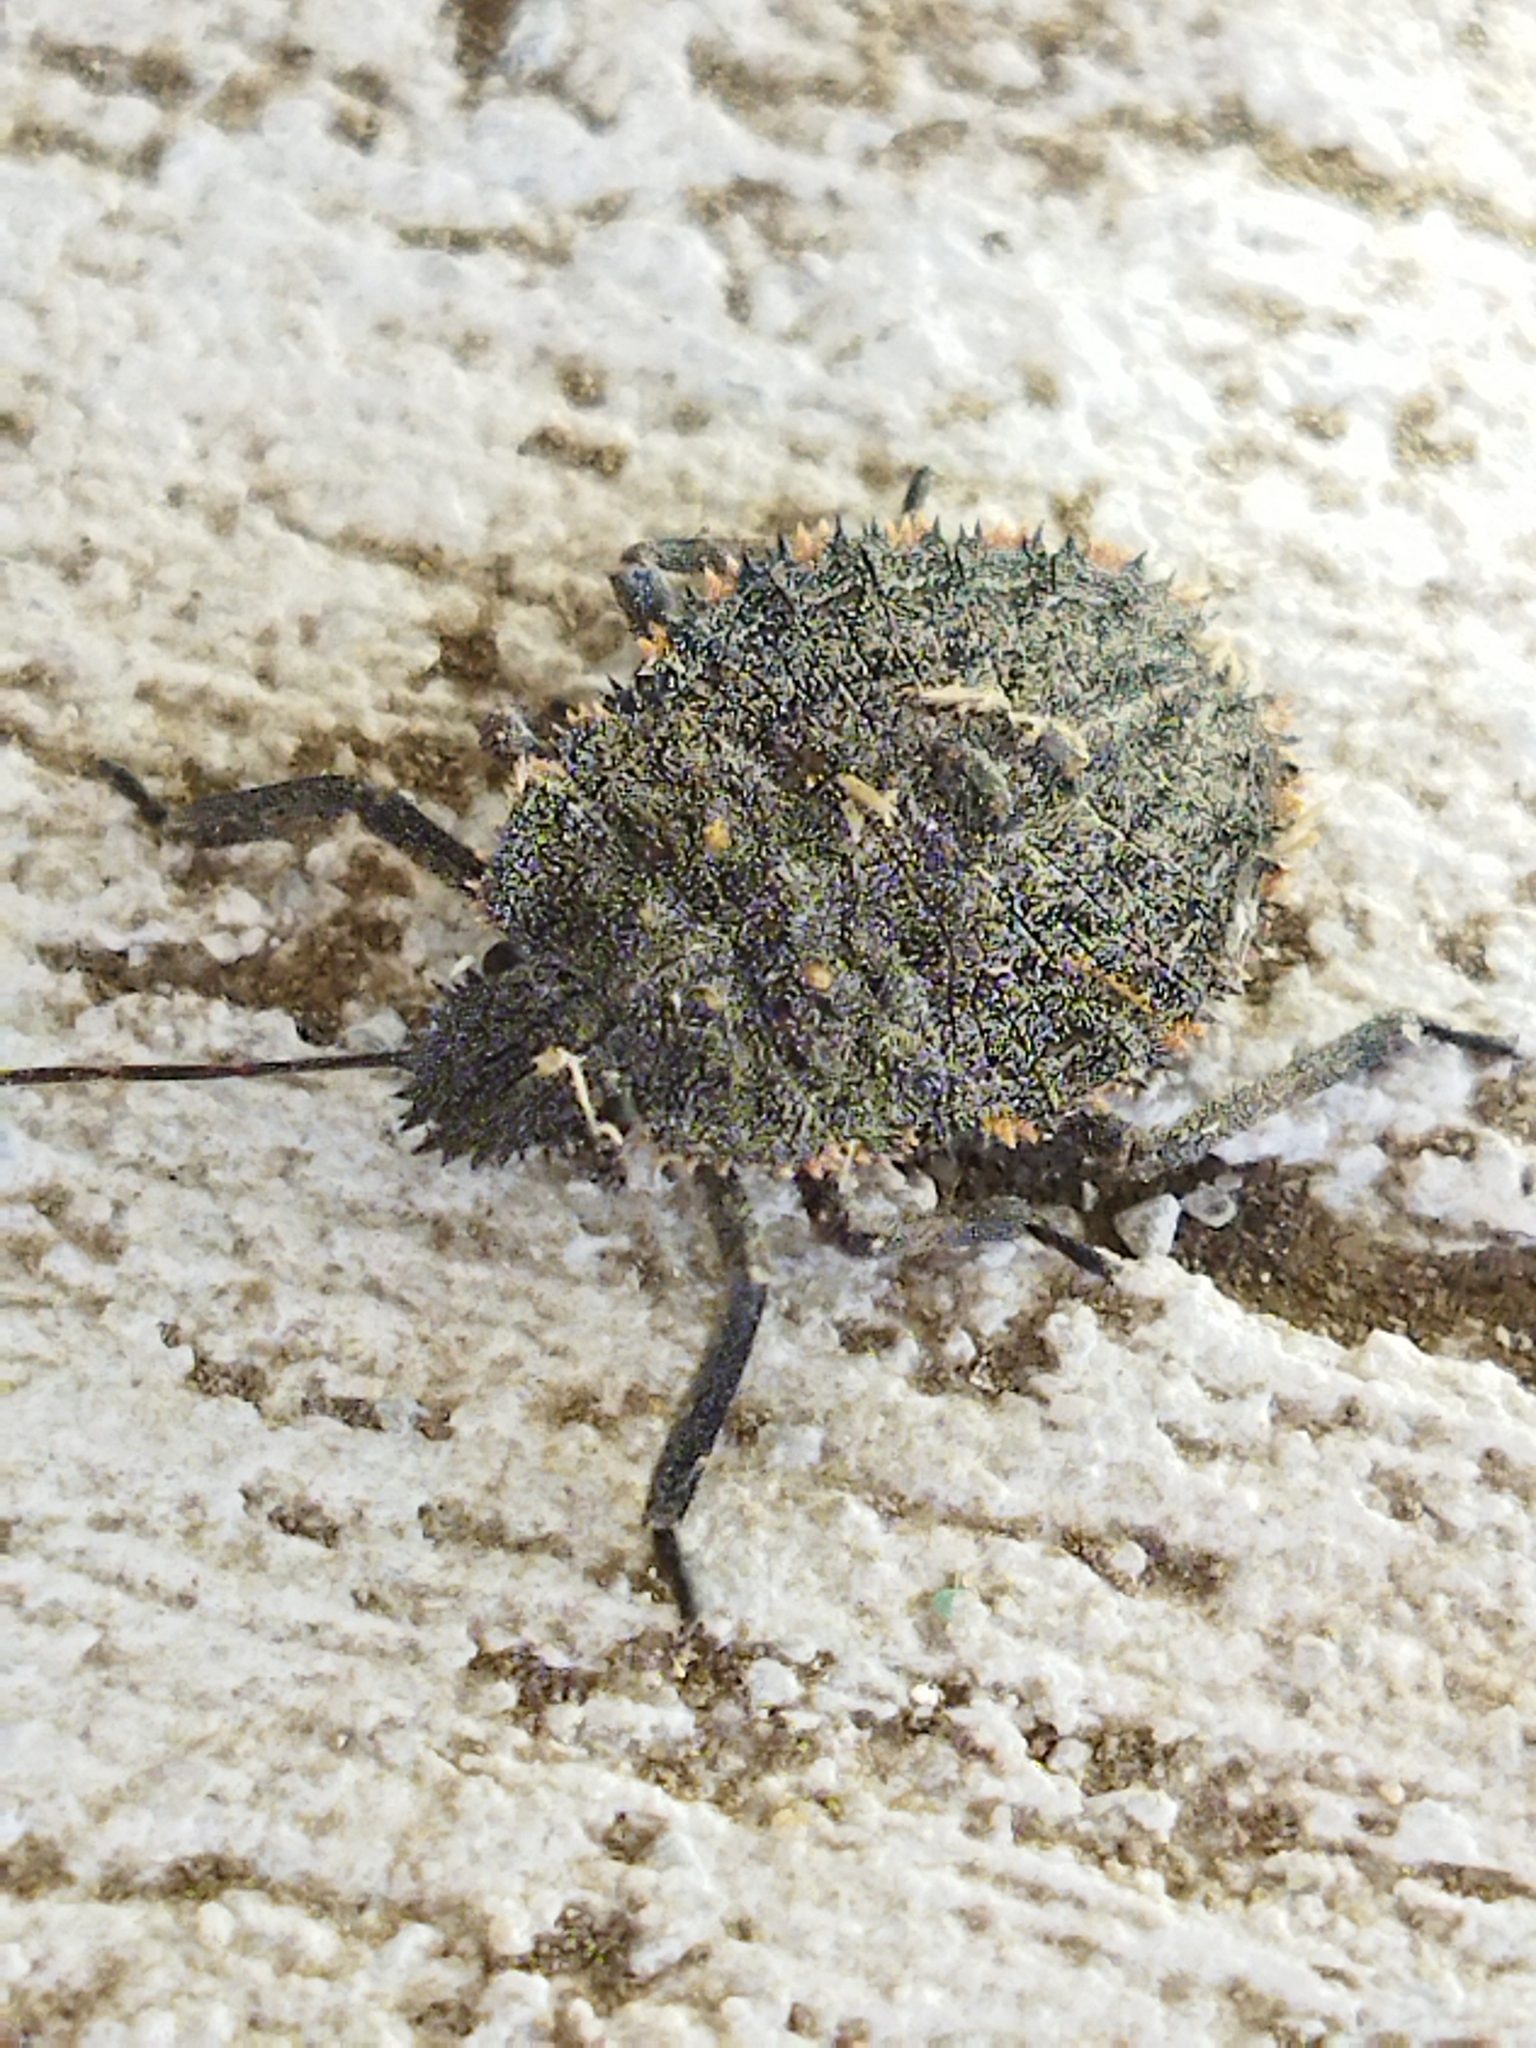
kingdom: Animalia
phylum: Arthropoda
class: Insecta
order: Hemiptera
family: Pentatomidae
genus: Mustha
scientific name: Mustha spinosula
